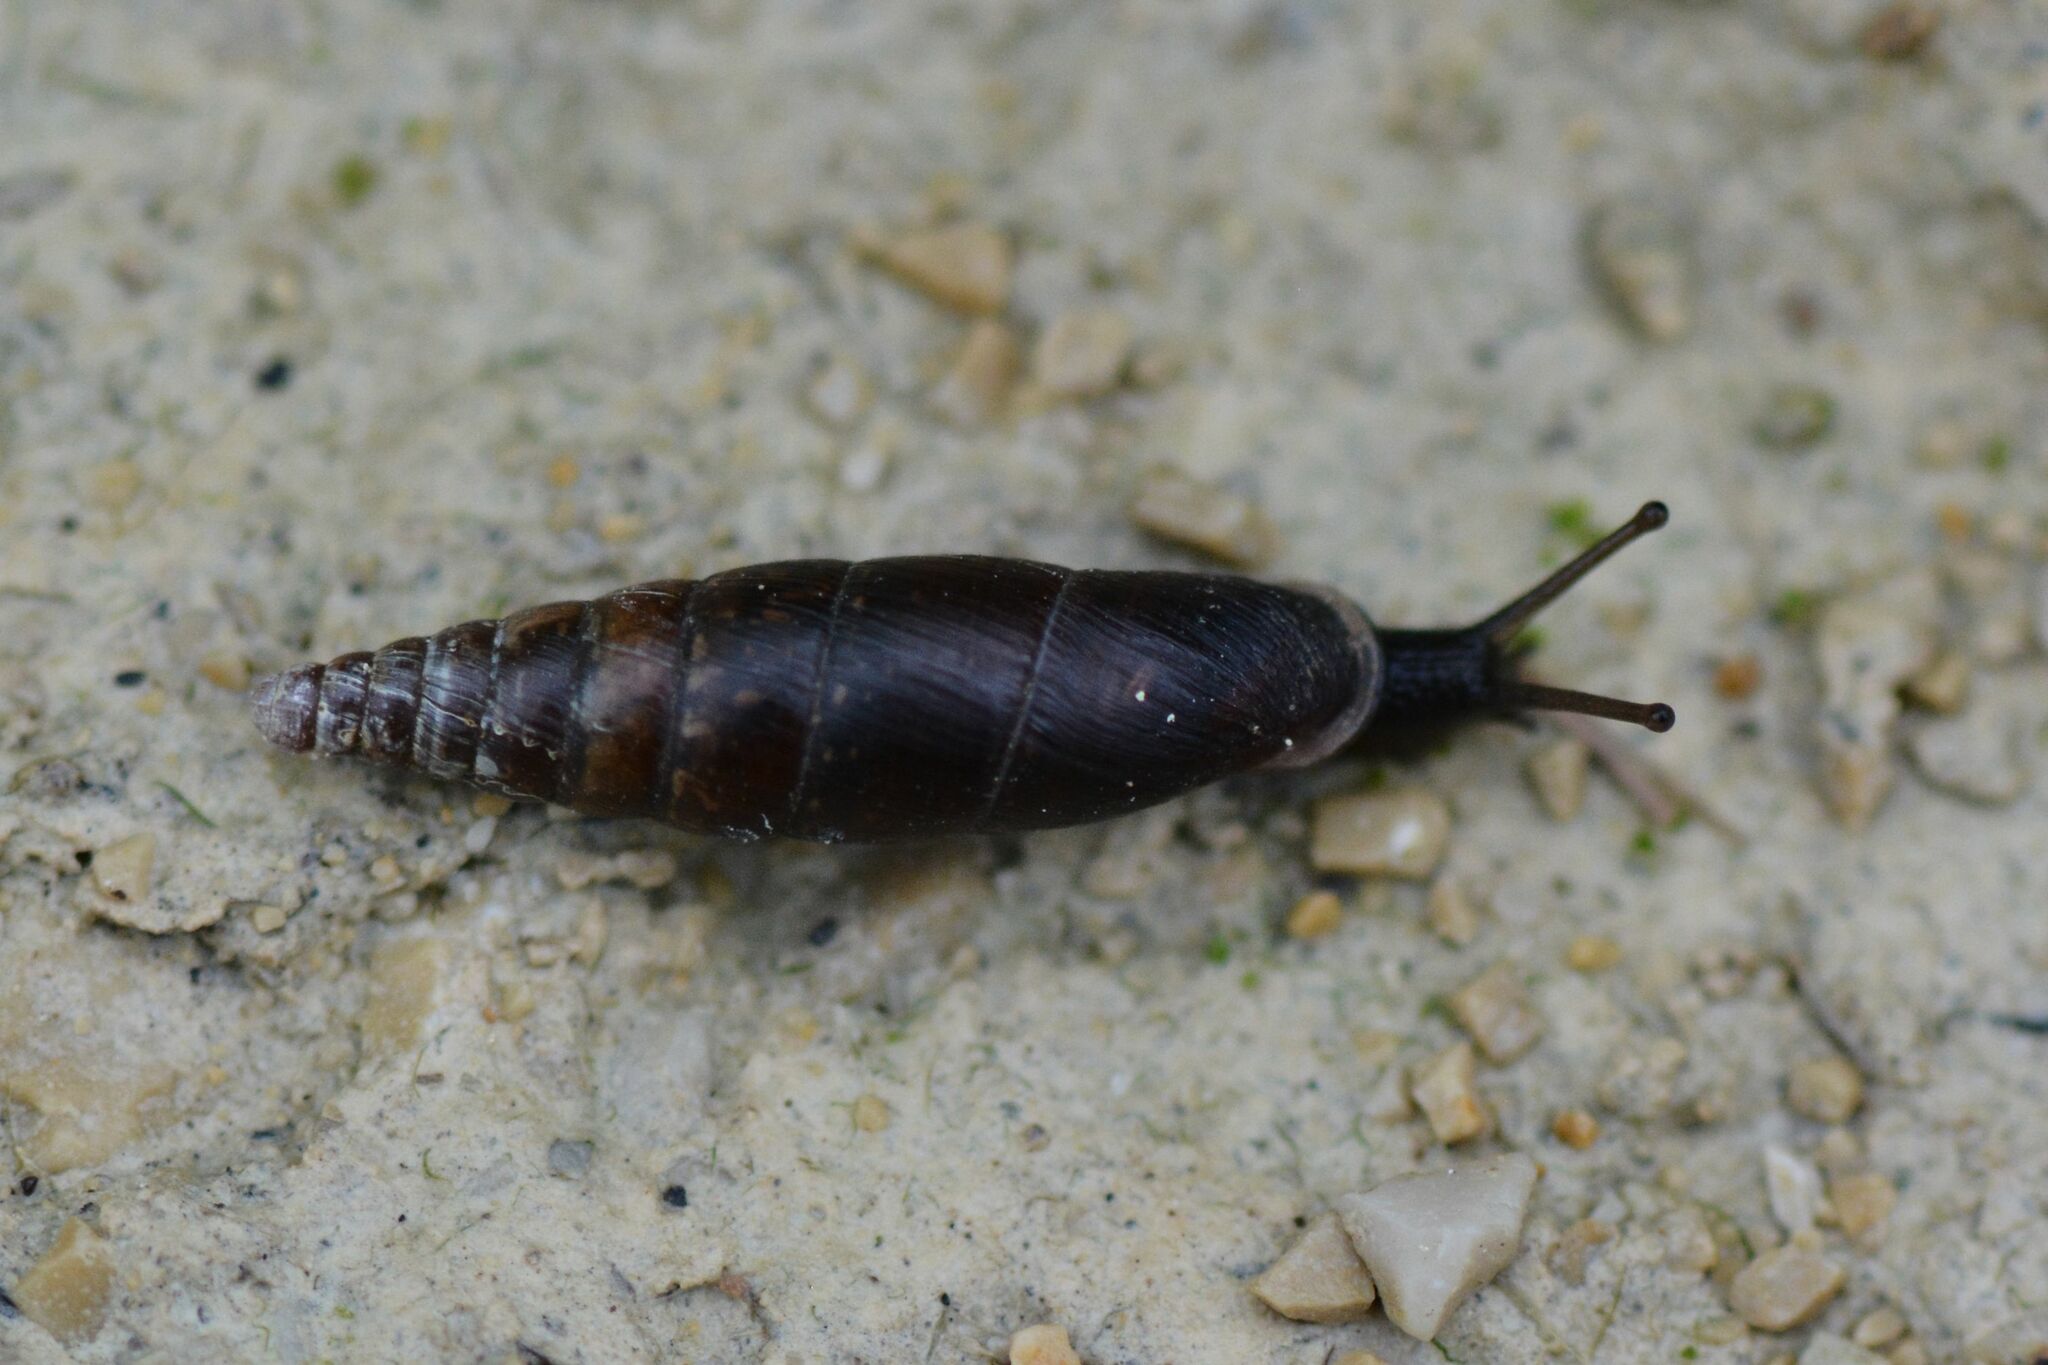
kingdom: Animalia
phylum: Mollusca
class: Gastropoda
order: Stylommatophora
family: Clausiliidae
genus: Cochlodina
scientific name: Cochlodina laminata
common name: Plaited door snail
